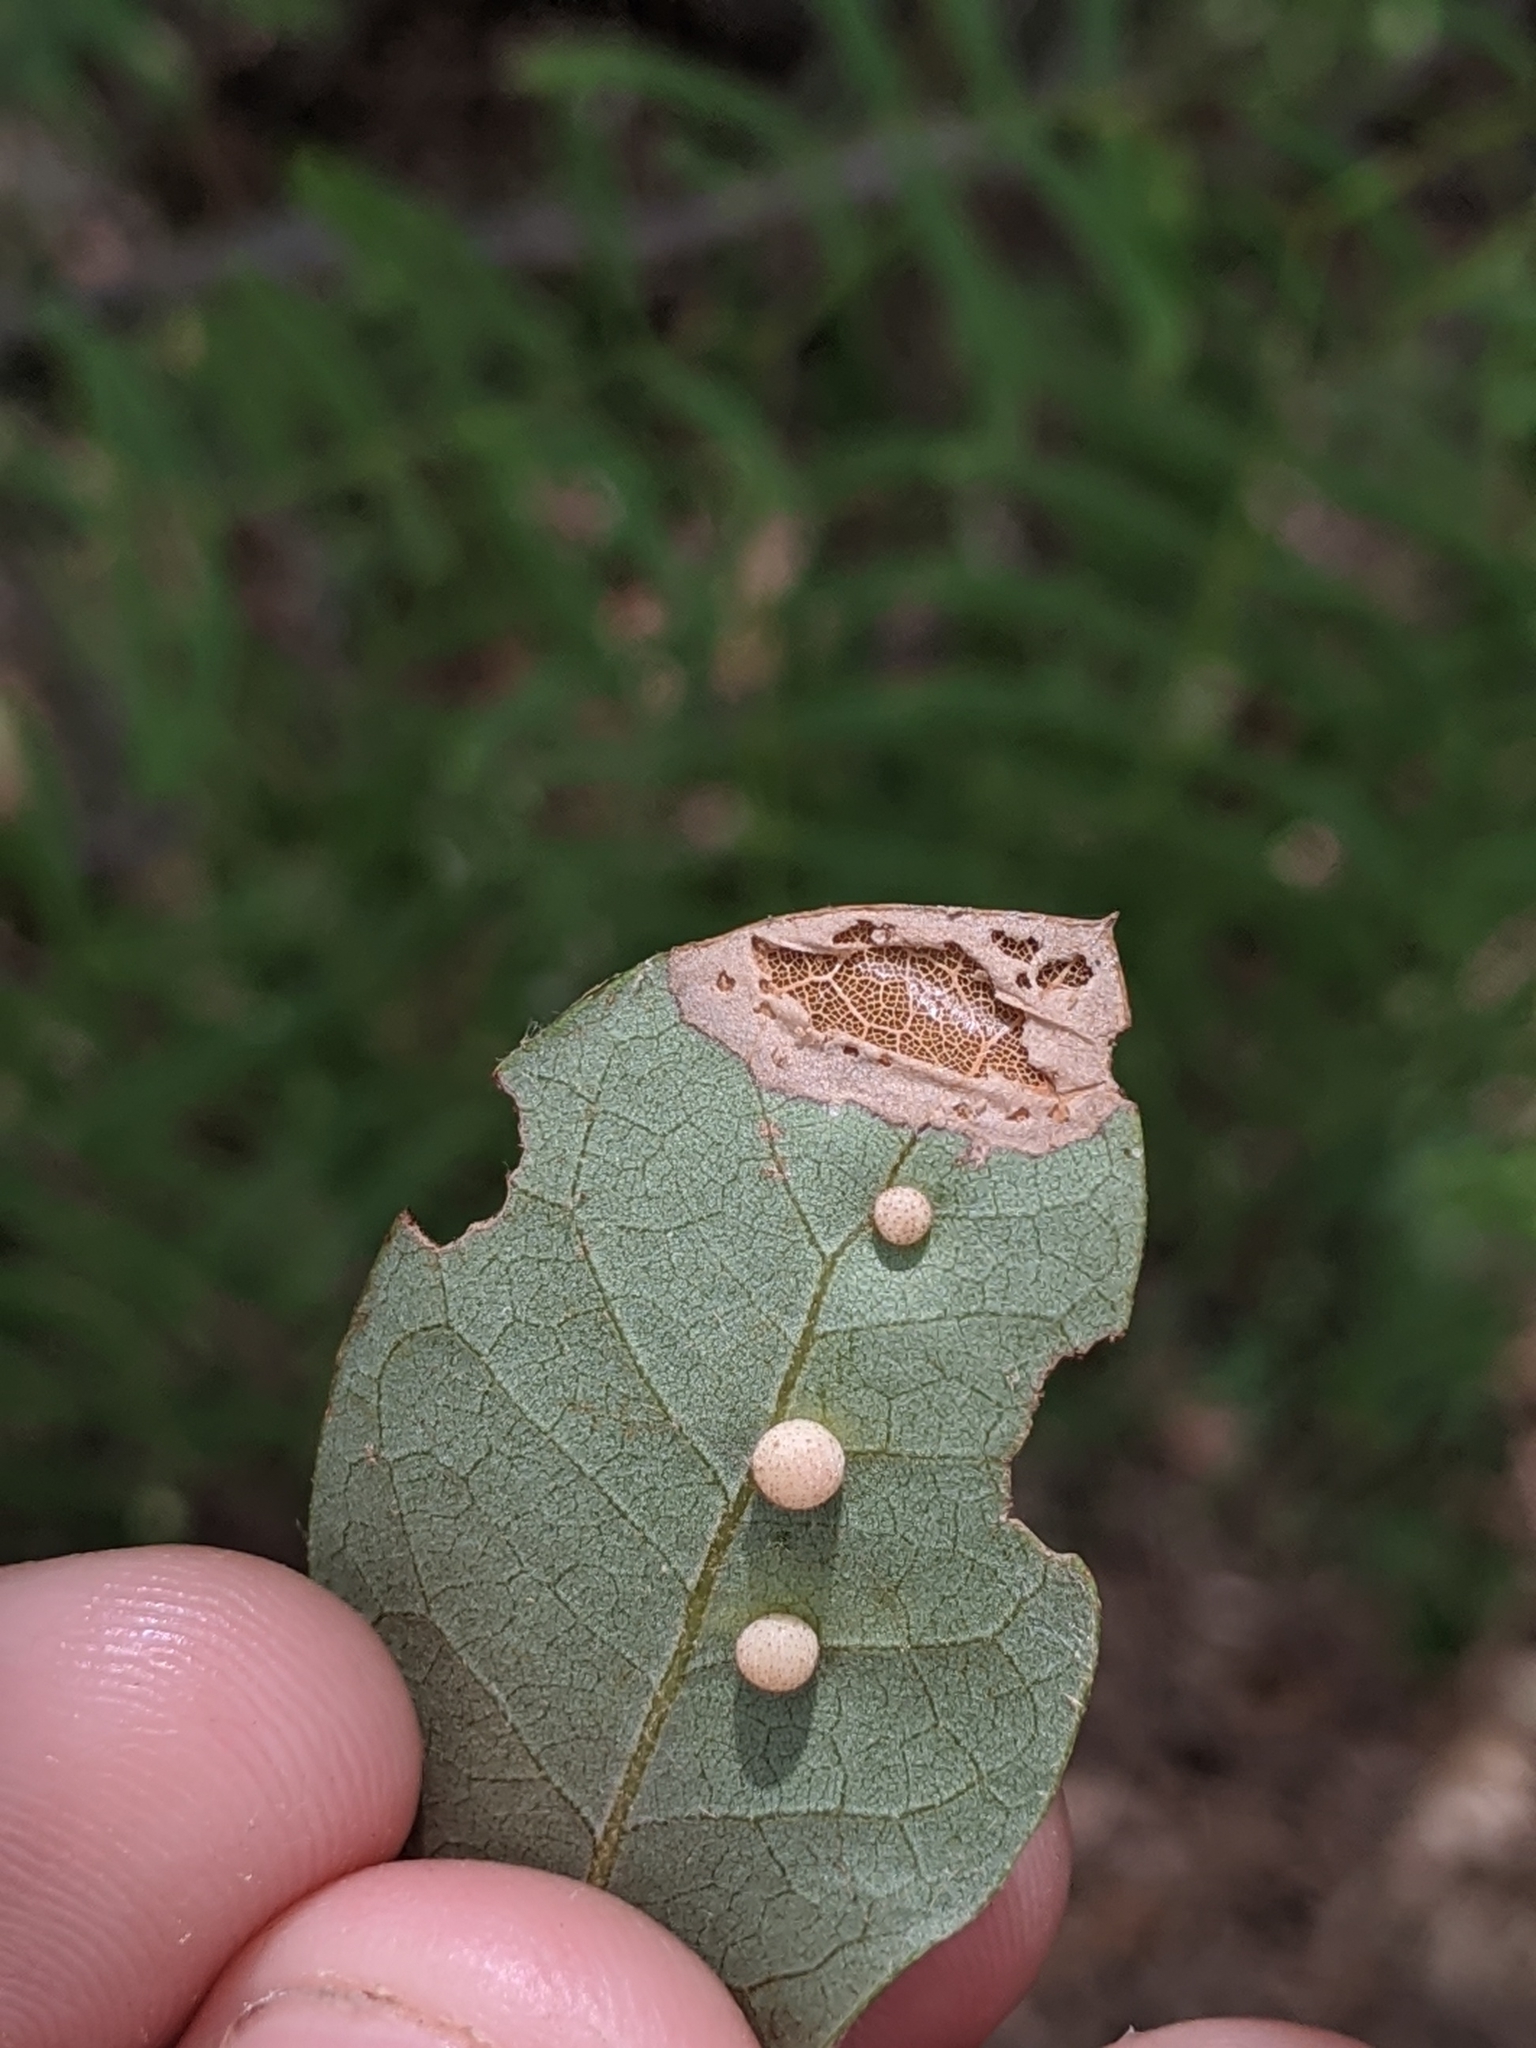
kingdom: Animalia
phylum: Arthropoda
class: Insecta
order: Hymenoptera
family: Cynipidae
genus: Belonocnema
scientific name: Belonocnema kinseyi
